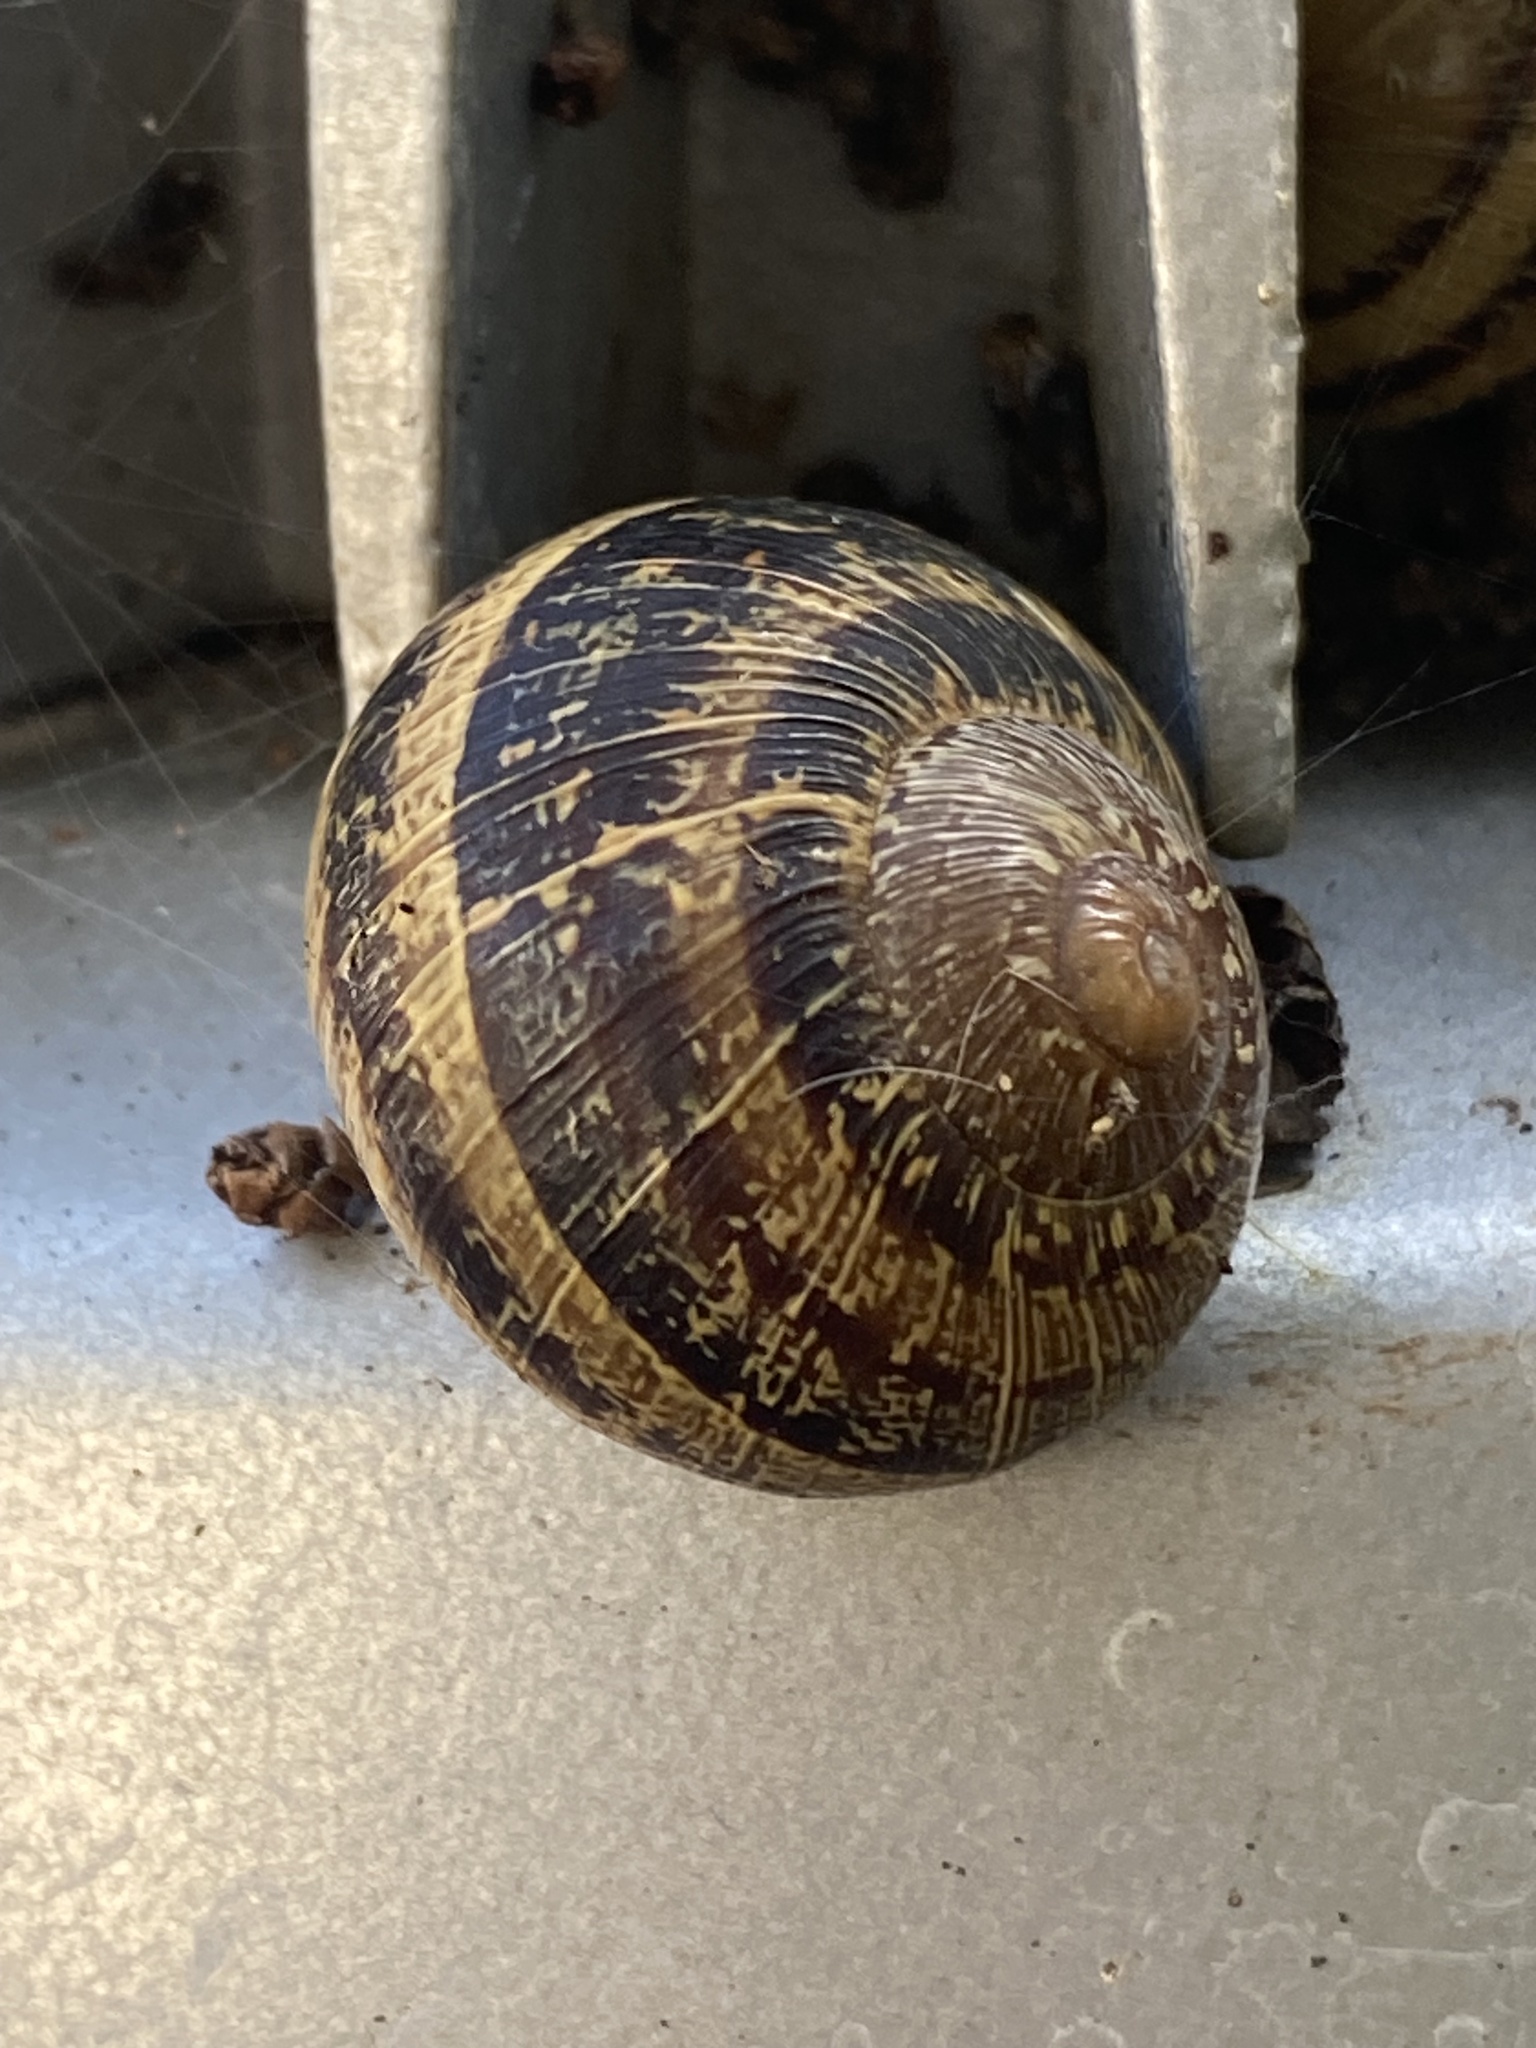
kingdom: Animalia
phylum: Mollusca
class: Gastropoda
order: Stylommatophora
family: Helicidae
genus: Cornu
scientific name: Cornu aspersum
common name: Brown garden snail
